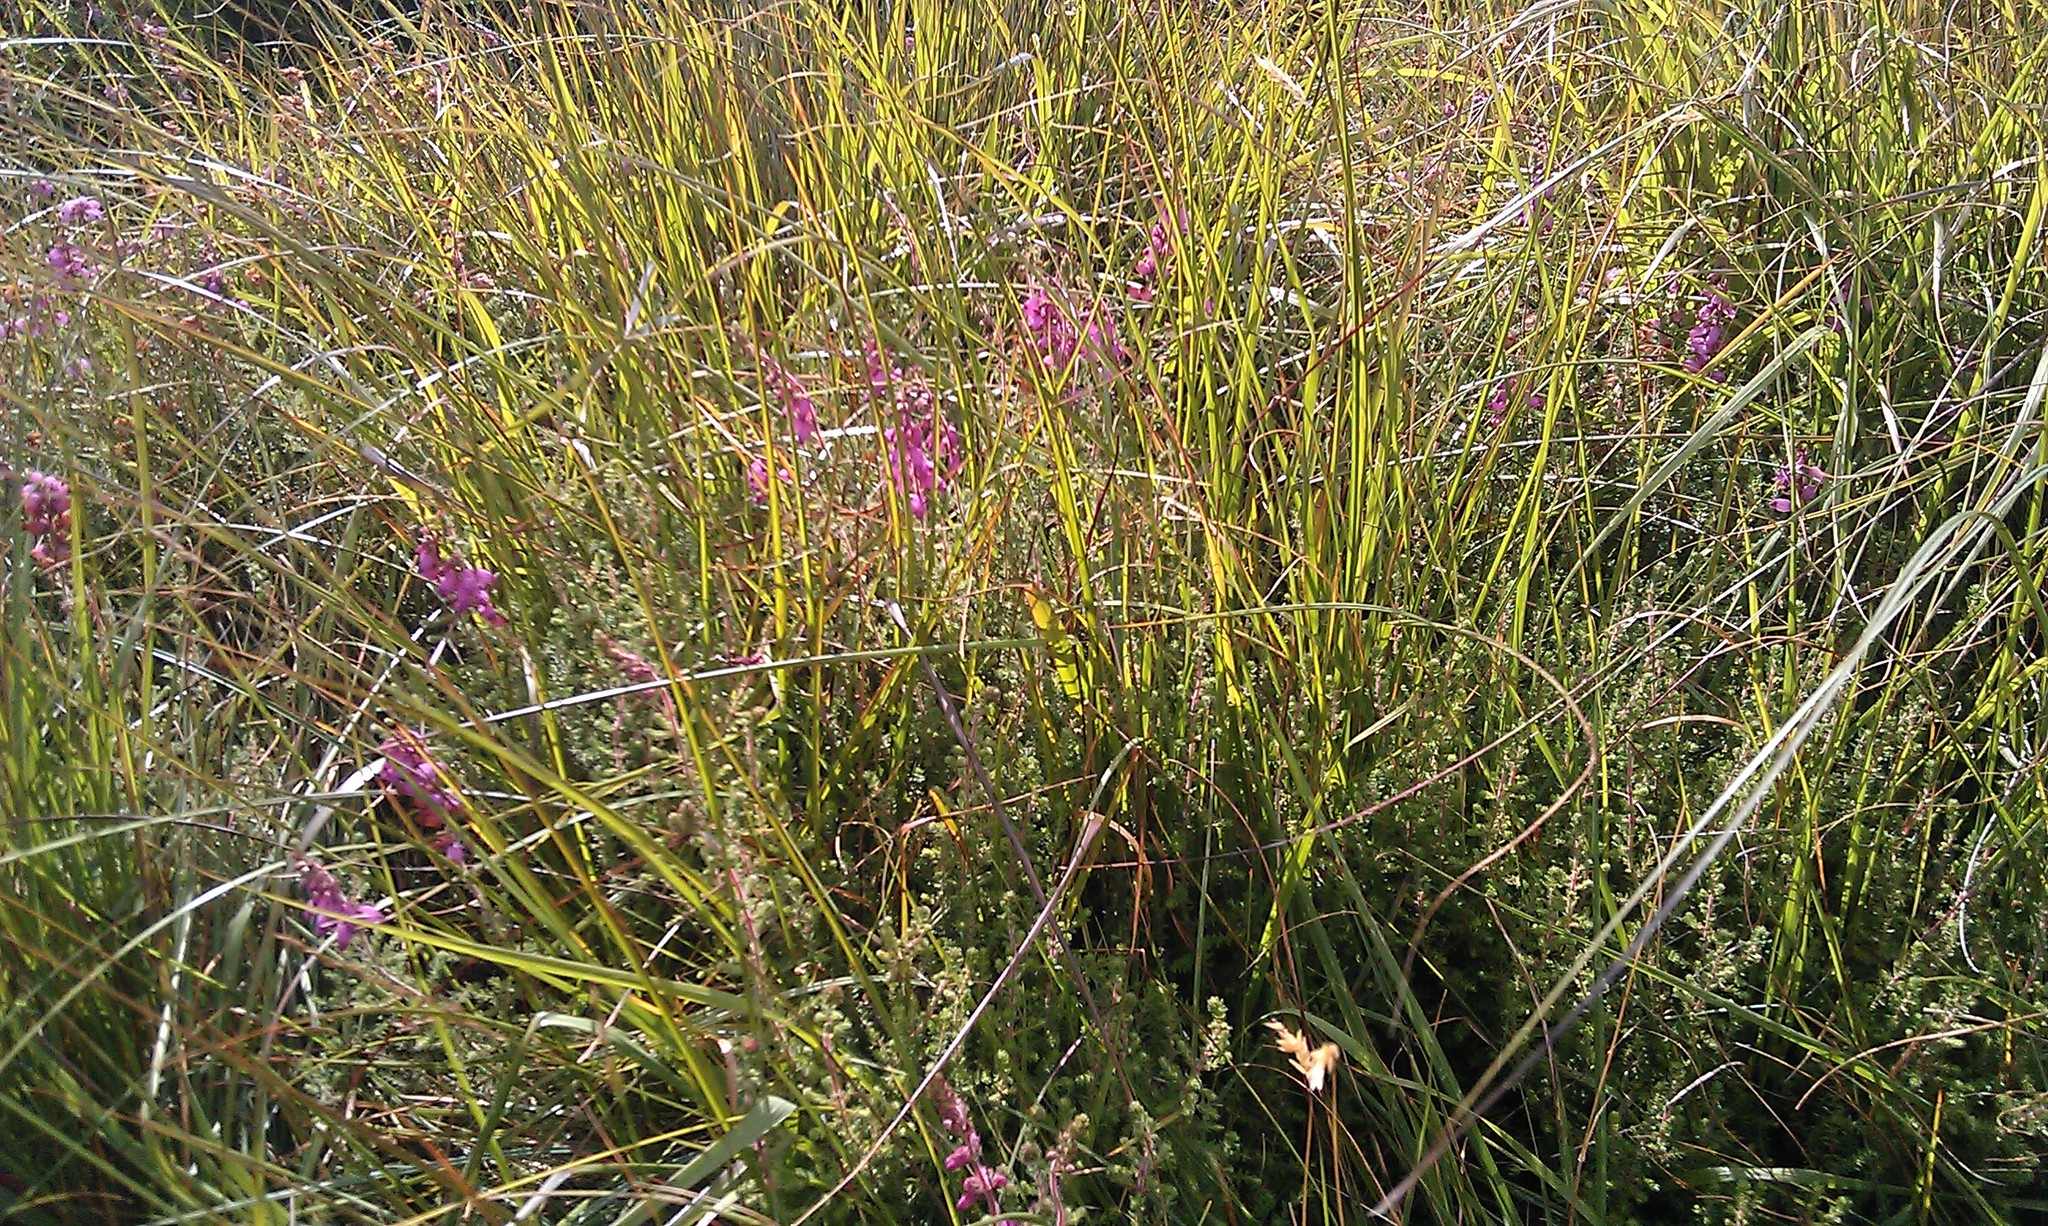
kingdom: Plantae
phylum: Tracheophyta
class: Magnoliopsida
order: Ericales
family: Ericaceae
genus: Erica
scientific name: Erica ciliaris
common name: Dorset heath
